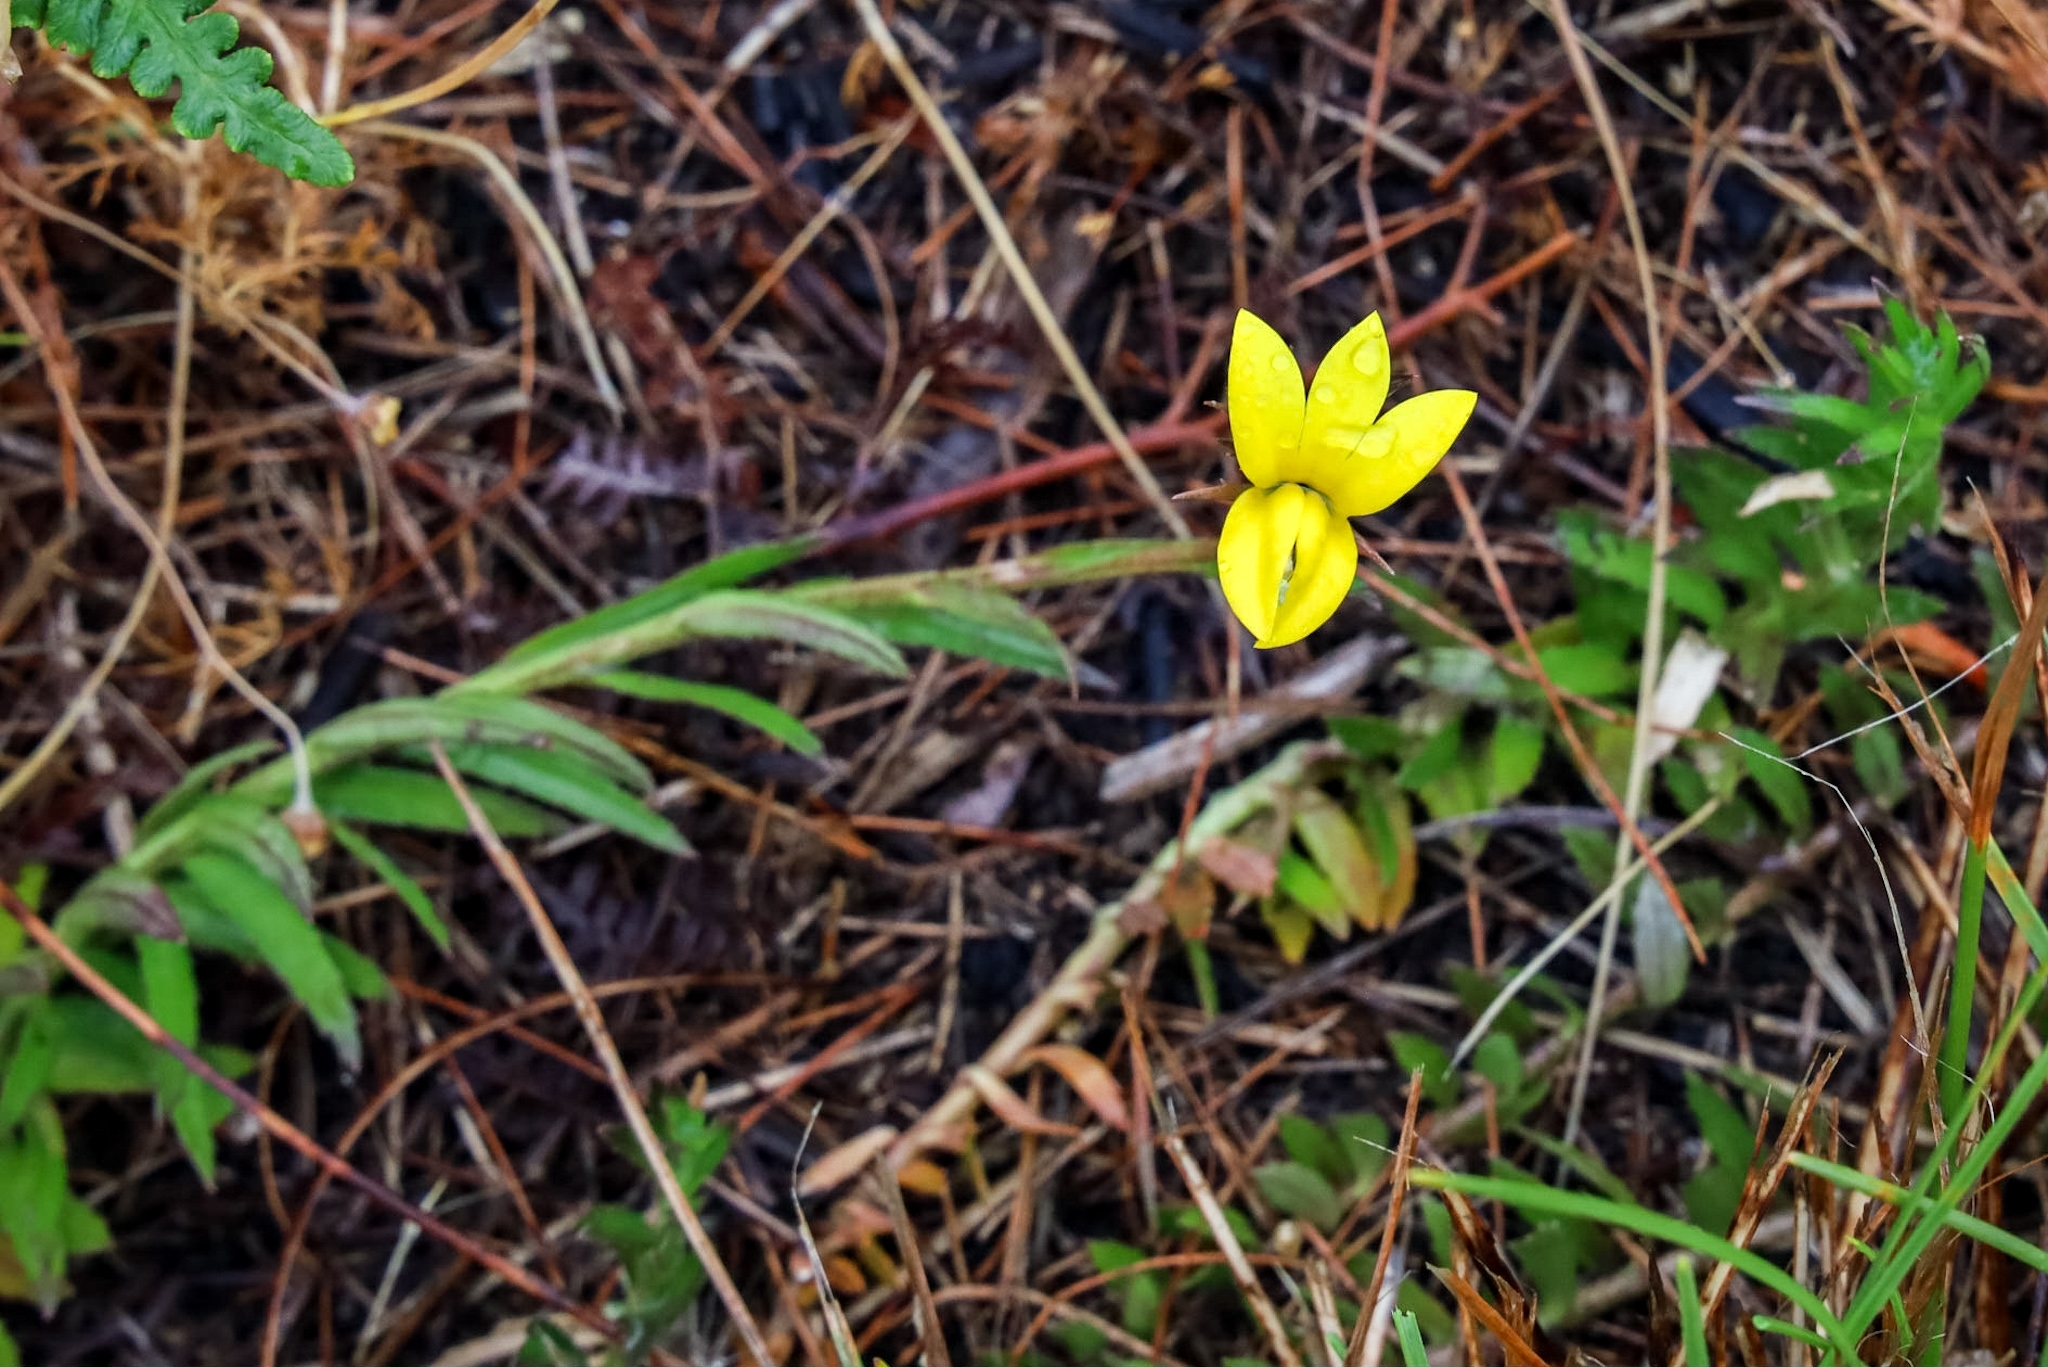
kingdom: Plantae
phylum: Tracheophyta
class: Magnoliopsida
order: Asterales
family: Campanulaceae
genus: Monopsis
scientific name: Monopsis lutea
